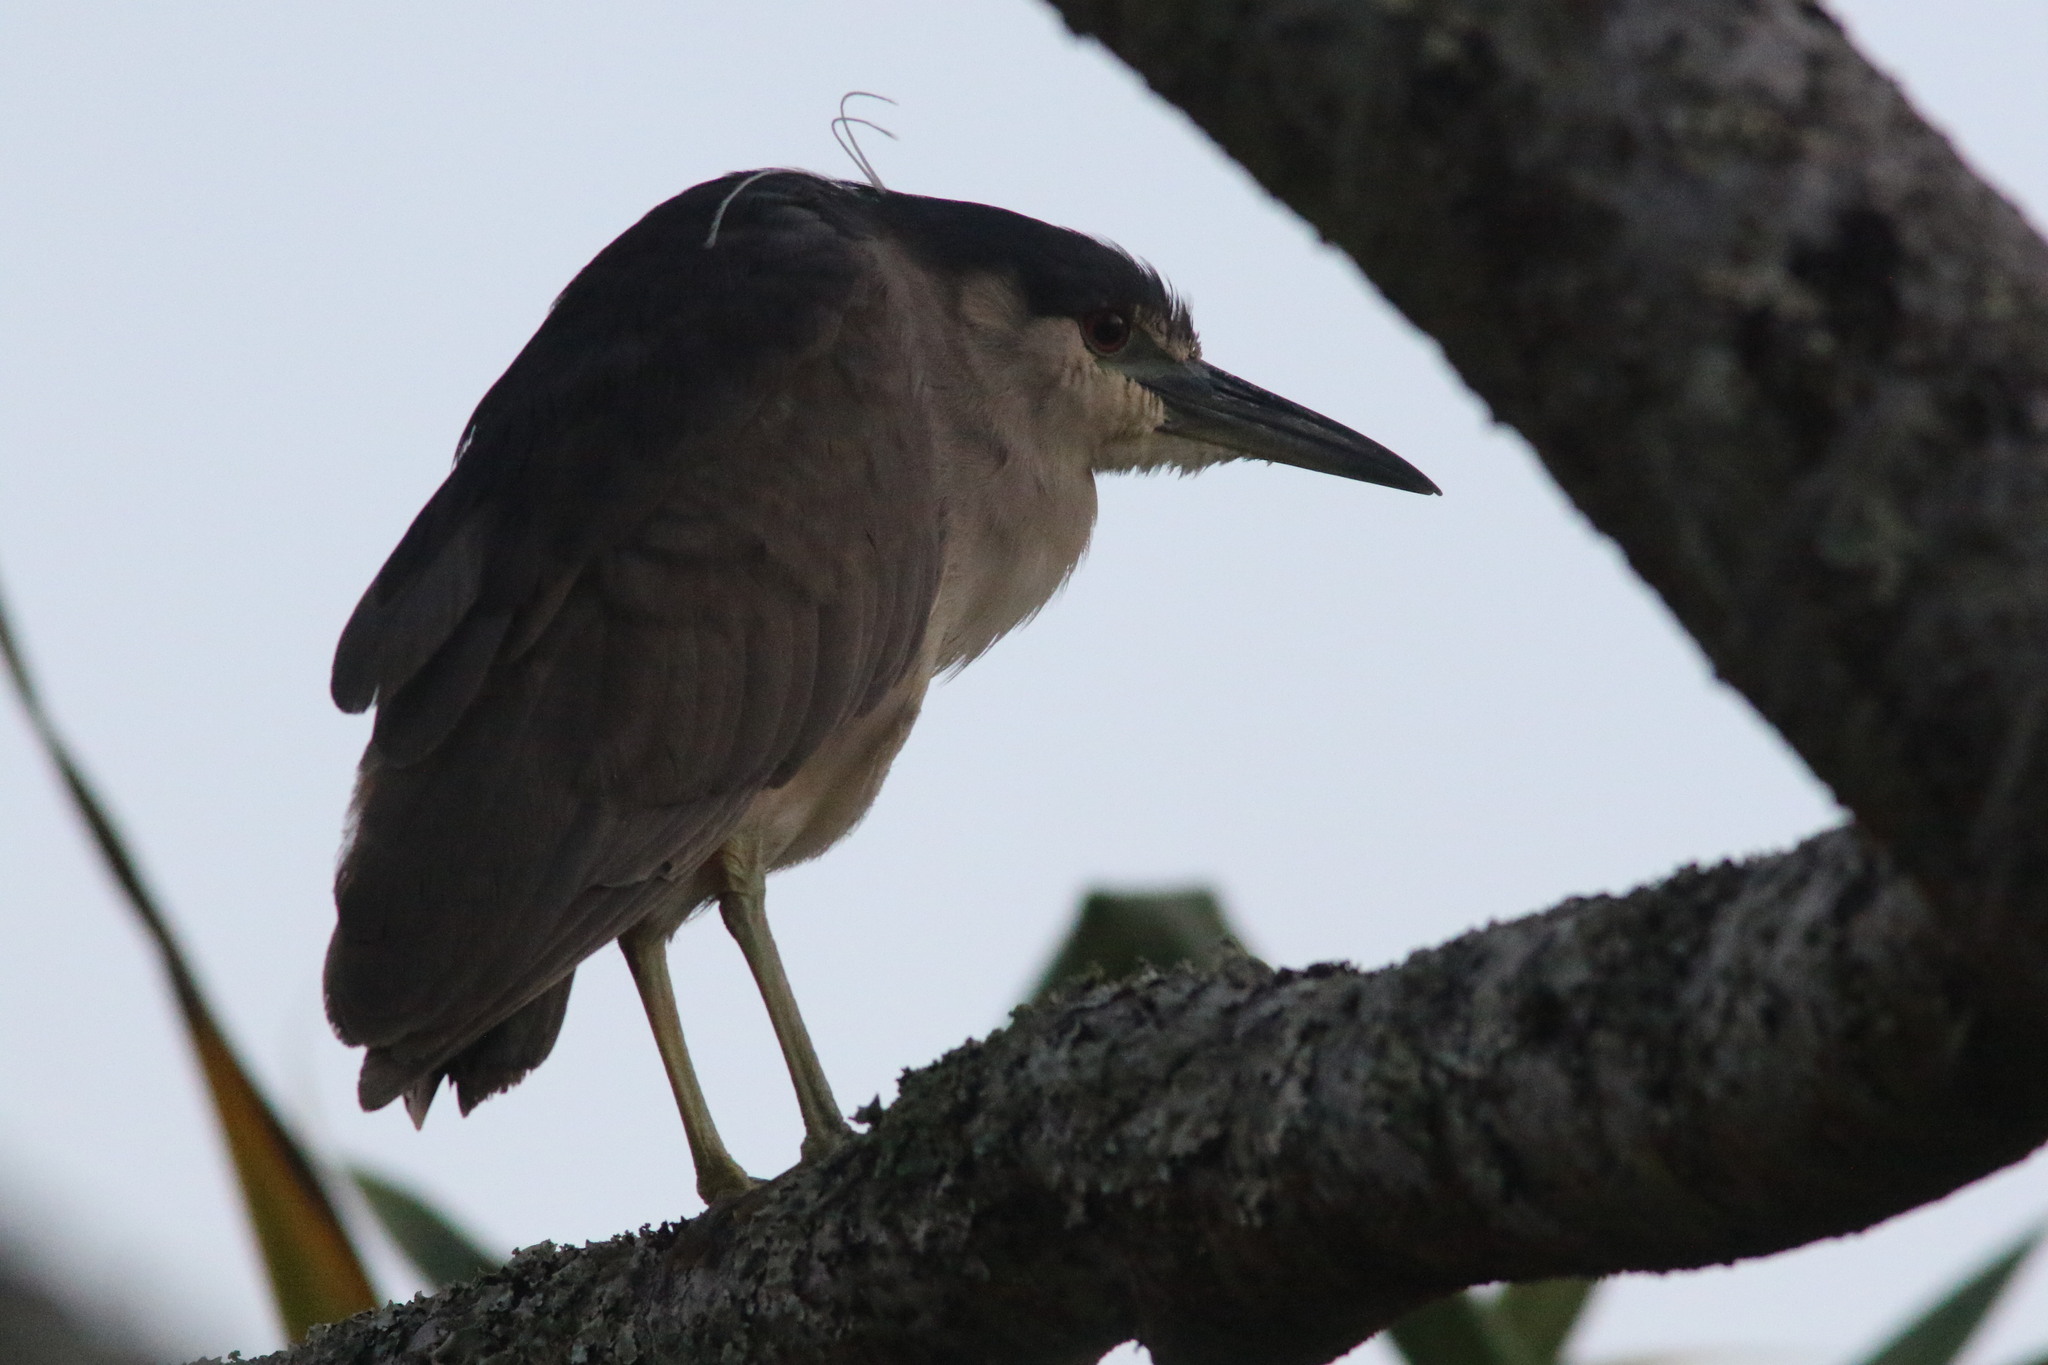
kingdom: Animalia
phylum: Chordata
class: Aves
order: Pelecaniformes
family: Ardeidae
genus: Nycticorax
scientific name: Nycticorax nycticorax
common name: Black-crowned night heron
